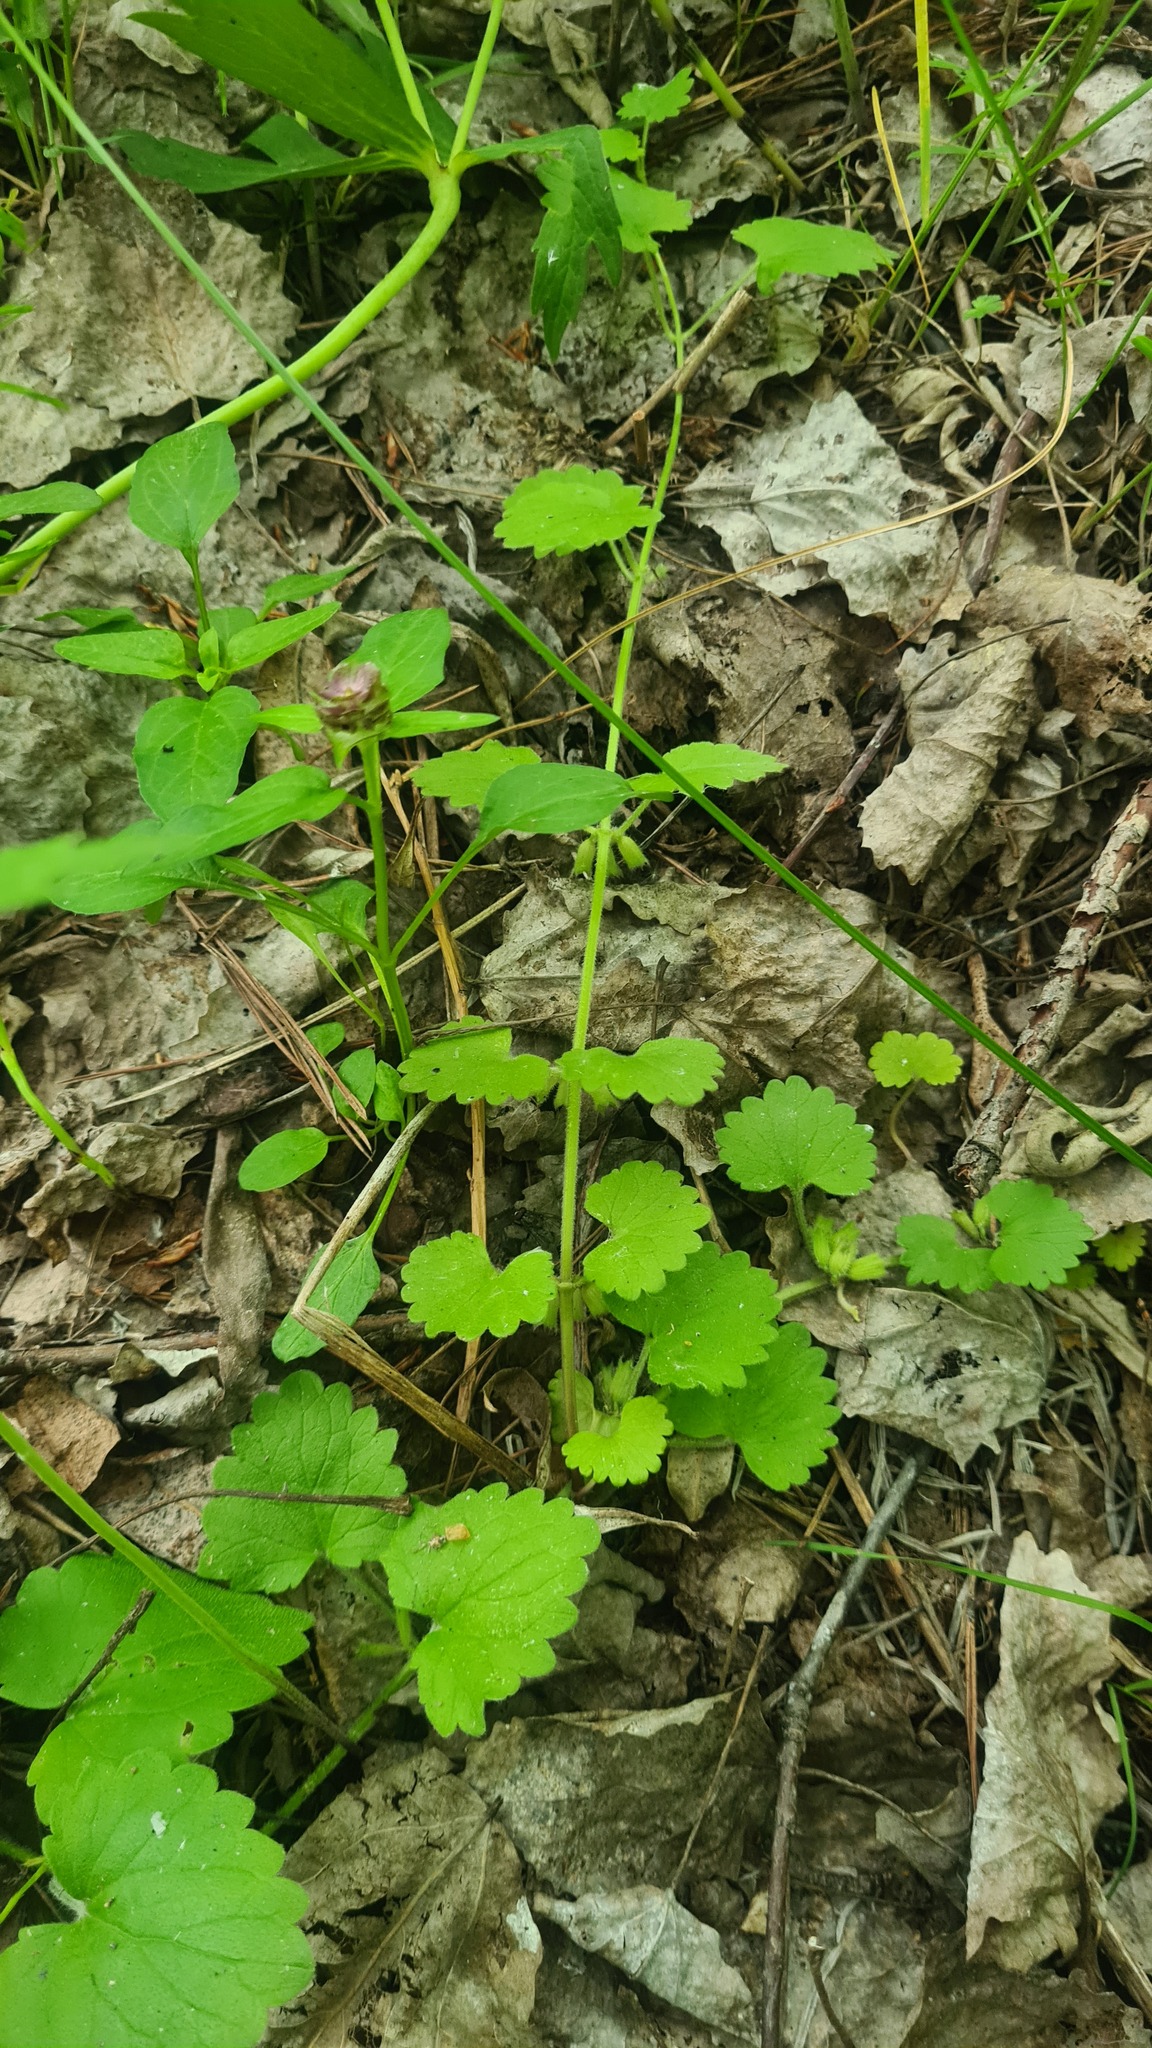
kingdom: Plantae
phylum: Tracheophyta
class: Magnoliopsida
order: Lamiales
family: Lamiaceae
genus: Glechoma
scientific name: Glechoma hederacea
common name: Ground ivy
